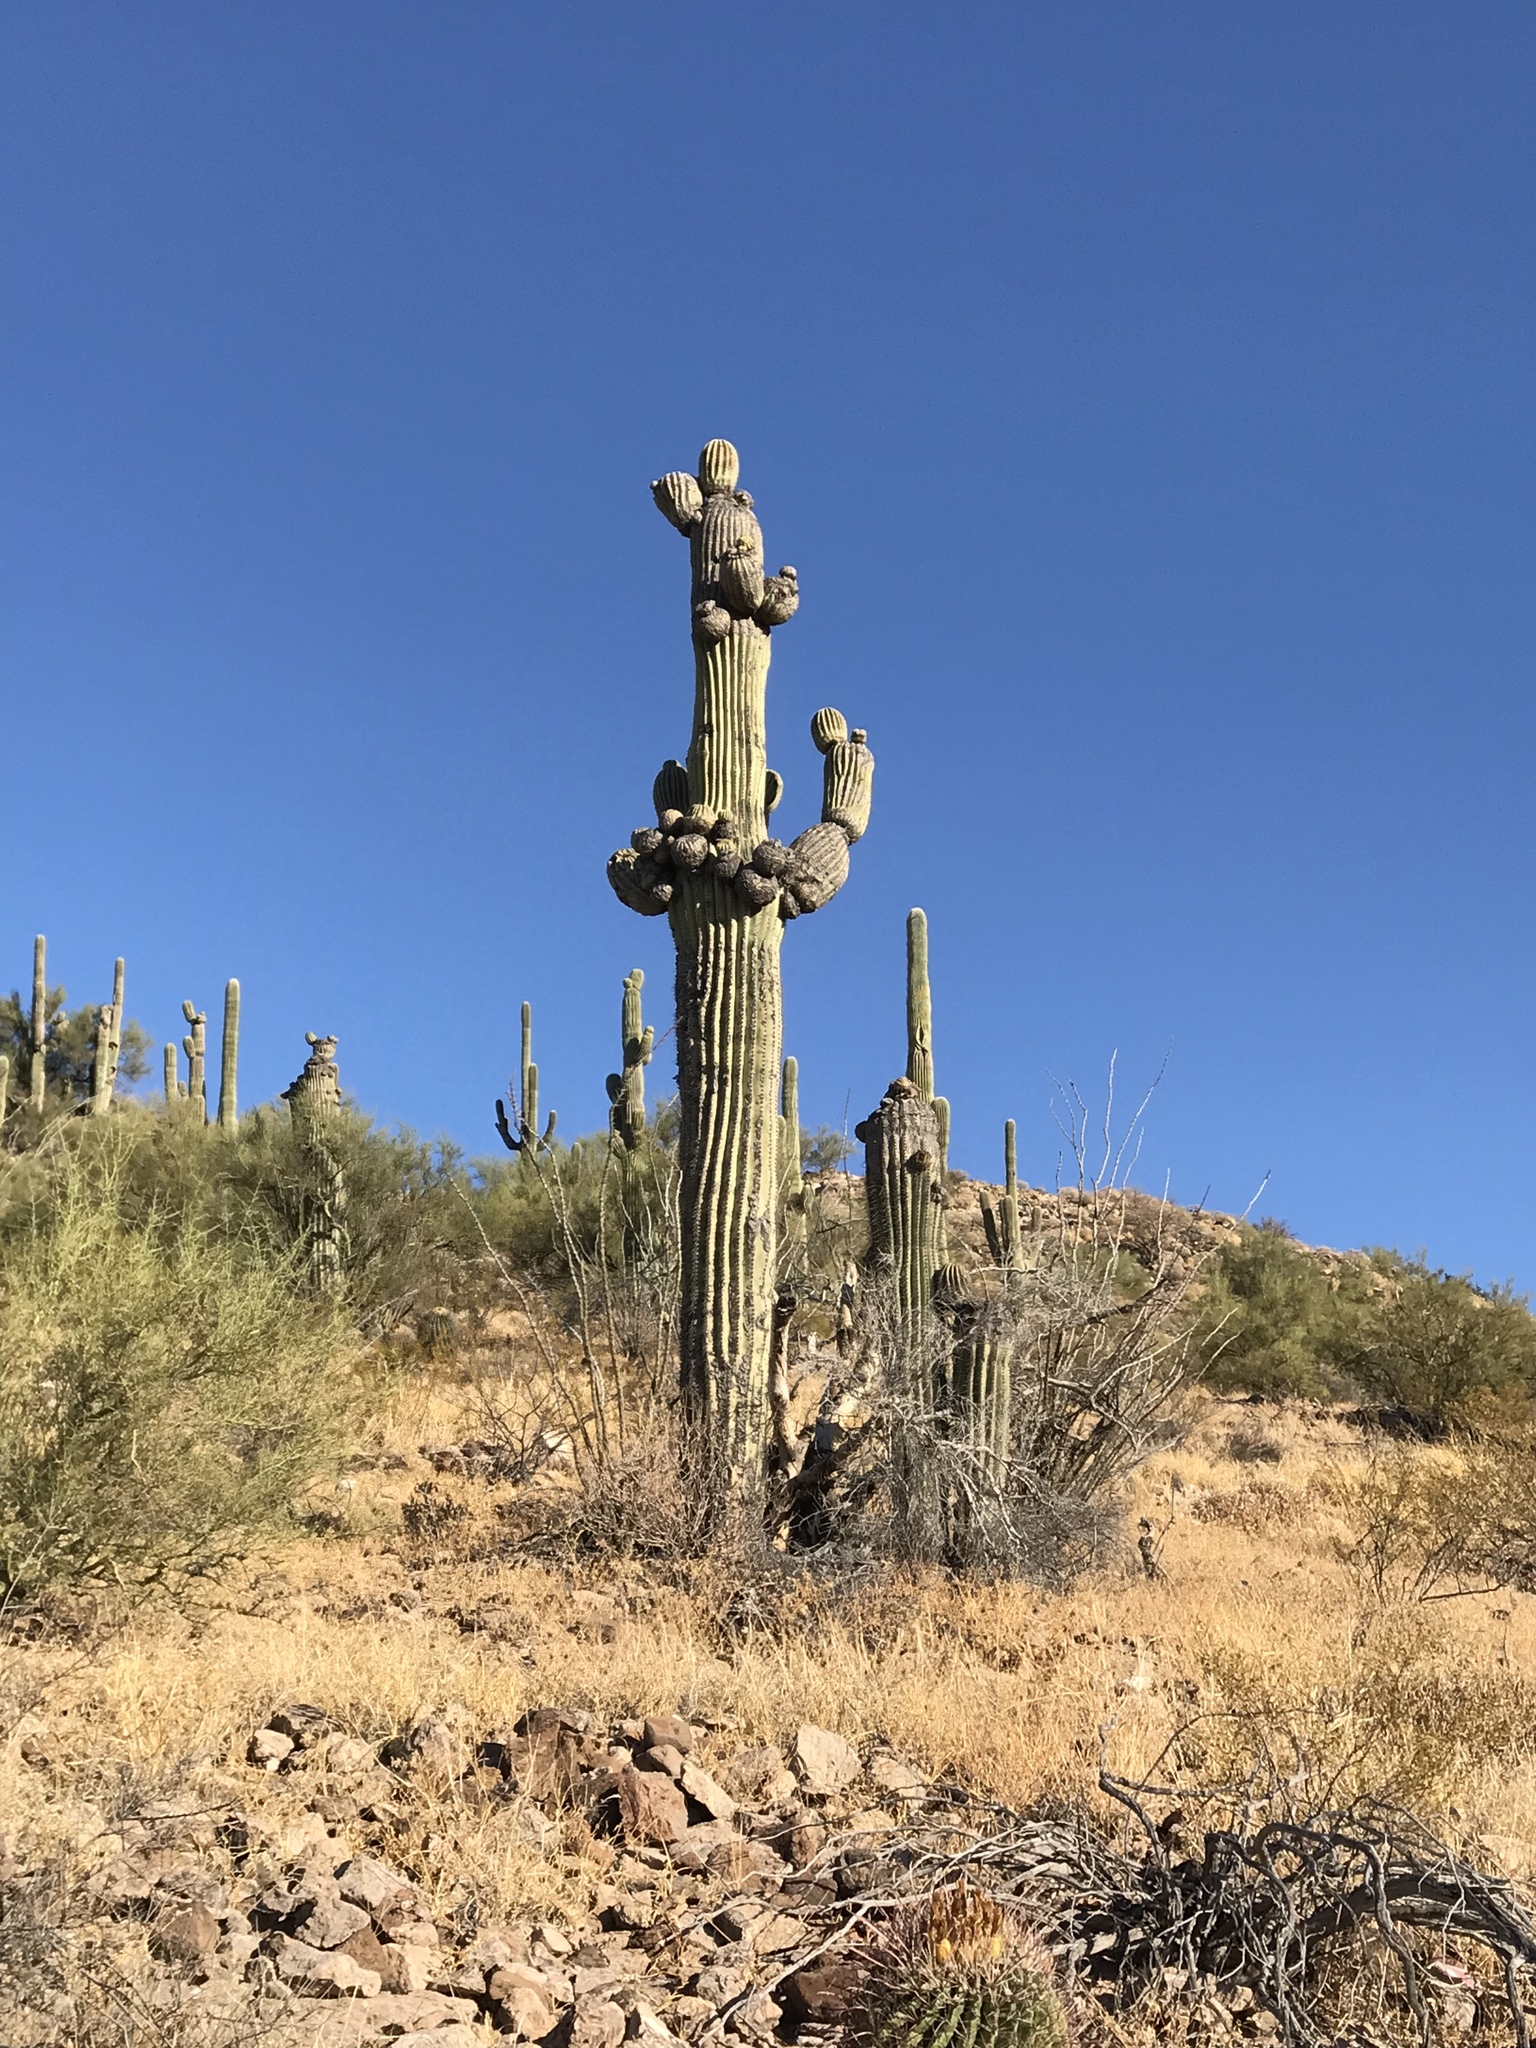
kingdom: Plantae
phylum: Tracheophyta
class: Magnoliopsida
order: Caryophyllales
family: Cactaceae
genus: Carnegiea
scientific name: Carnegiea gigantea
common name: Saguaro
